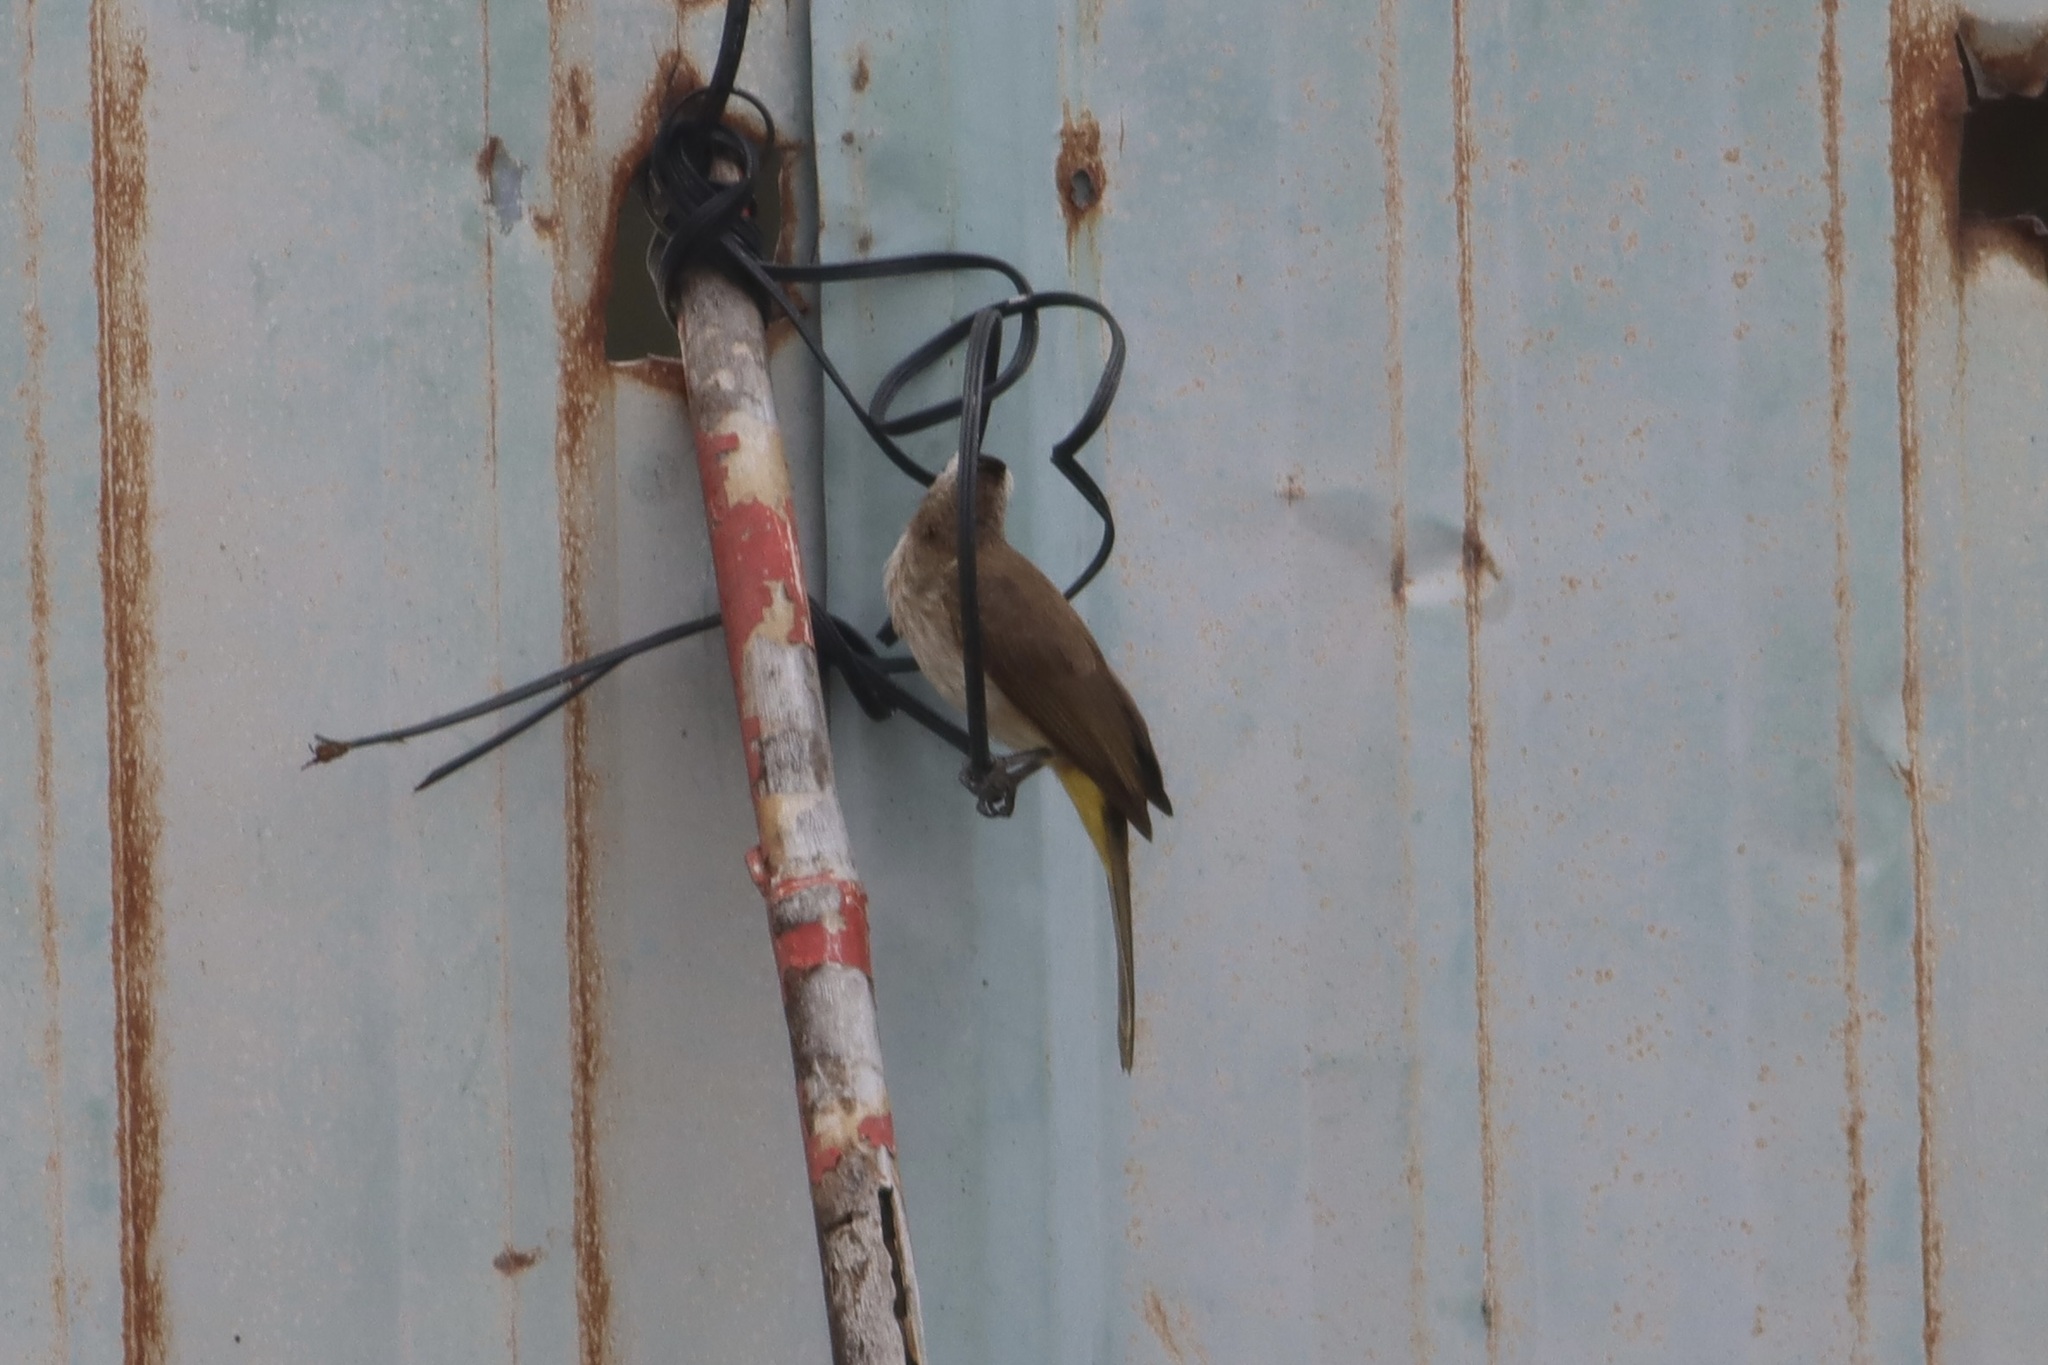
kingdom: Animalia
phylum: Chordata
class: Aves
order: Passeriformes
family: Pycnonotidae
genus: Pycnonotus
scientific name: Pycnonotus goiavier
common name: Yellow-vented bulbul
